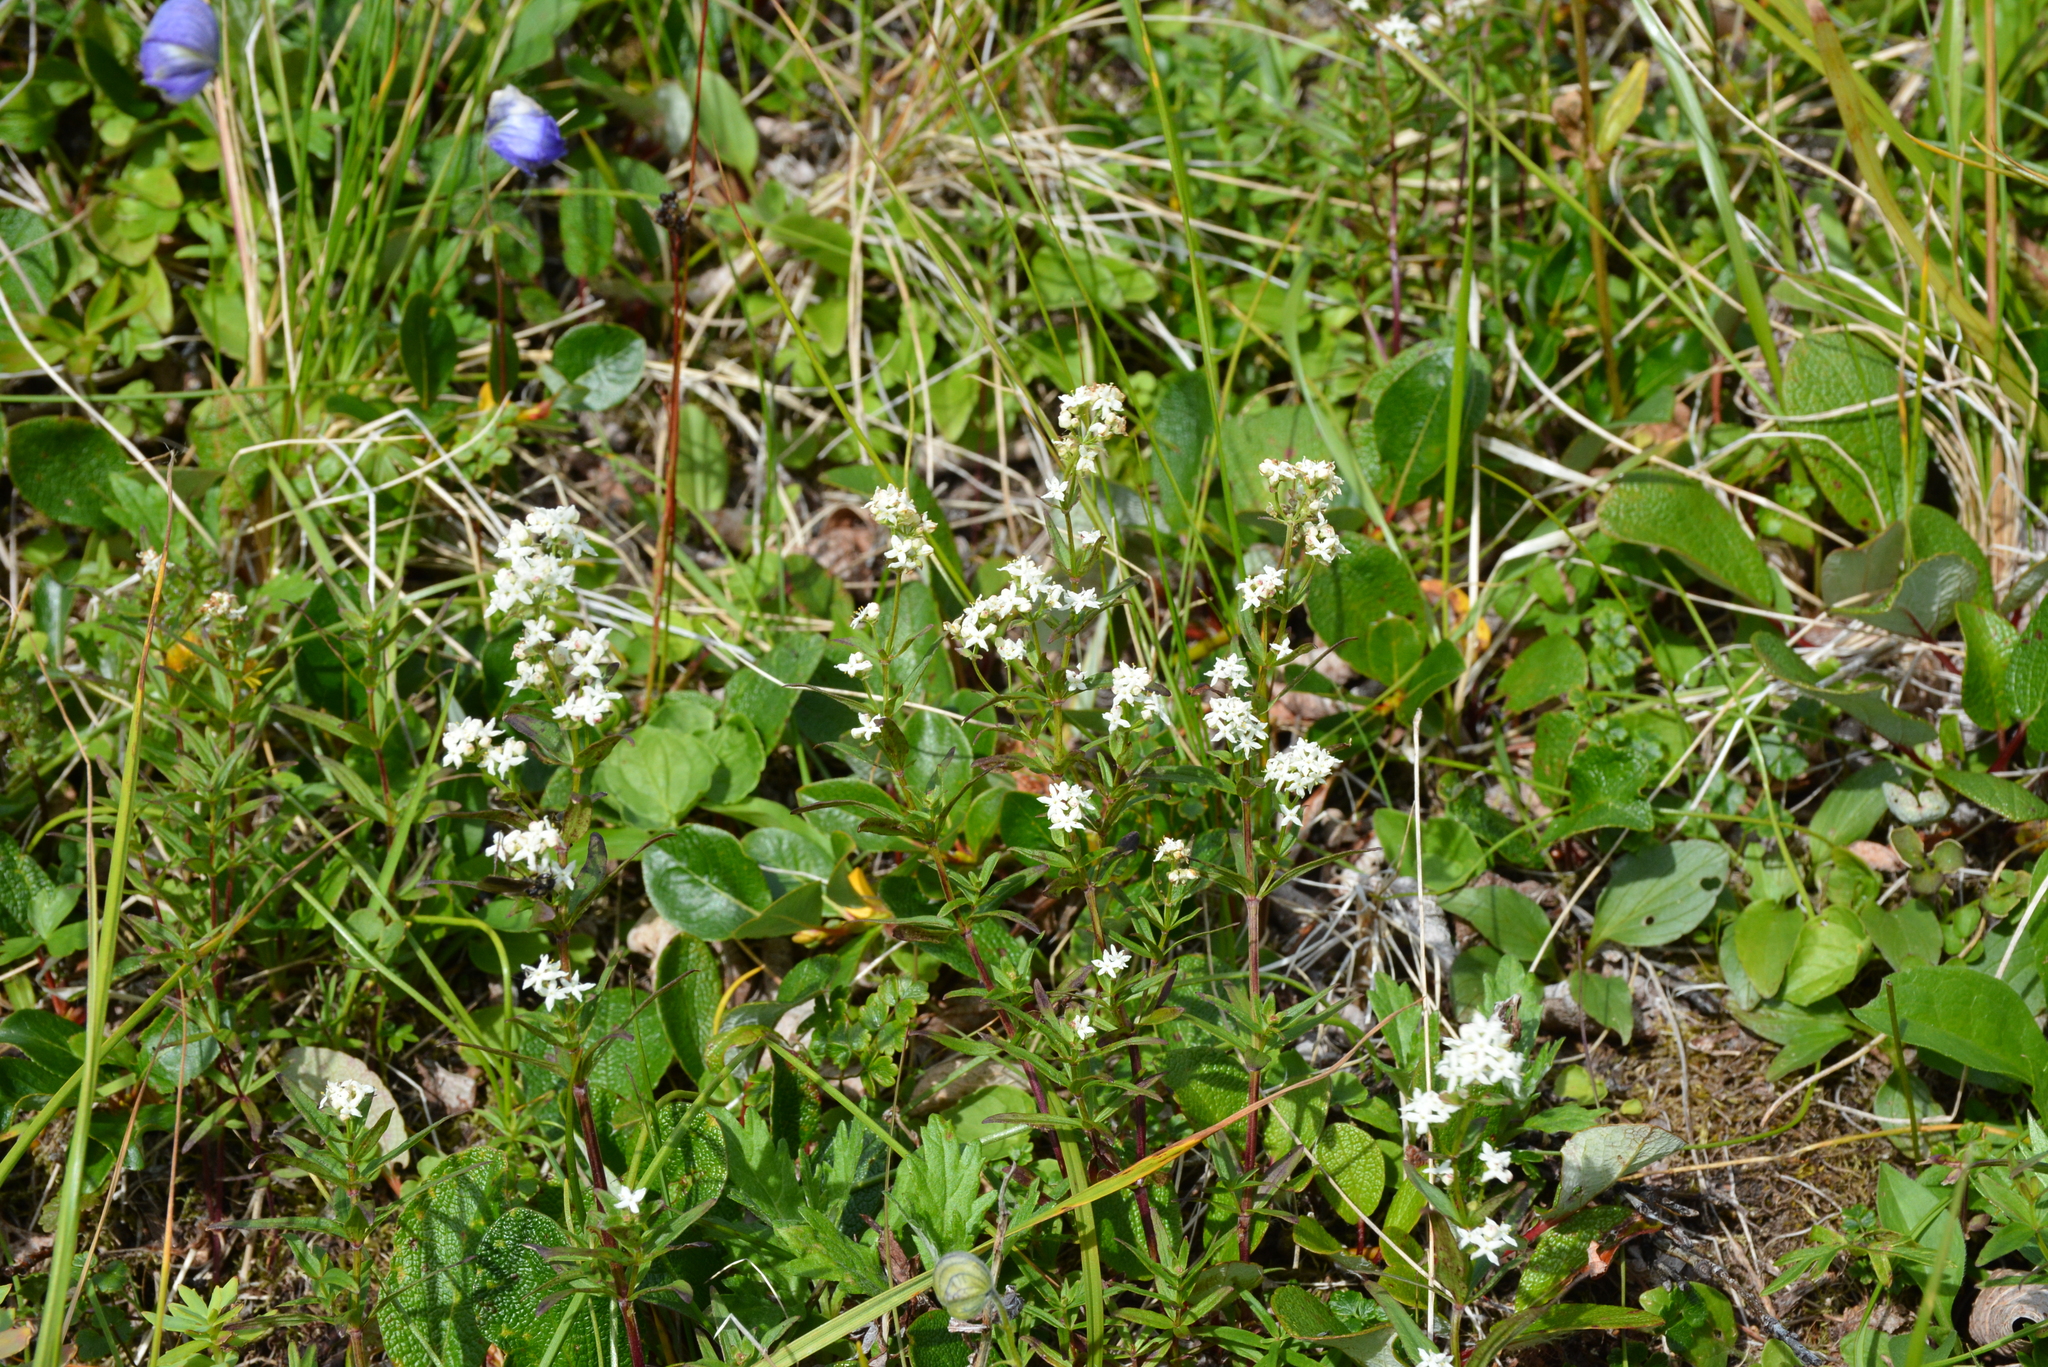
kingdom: Plantae
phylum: Tracheophyta
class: Magnoliopsida
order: Gentianales
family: Rubiaceae
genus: Galium
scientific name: Galium boreale
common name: Northern bedstraw
